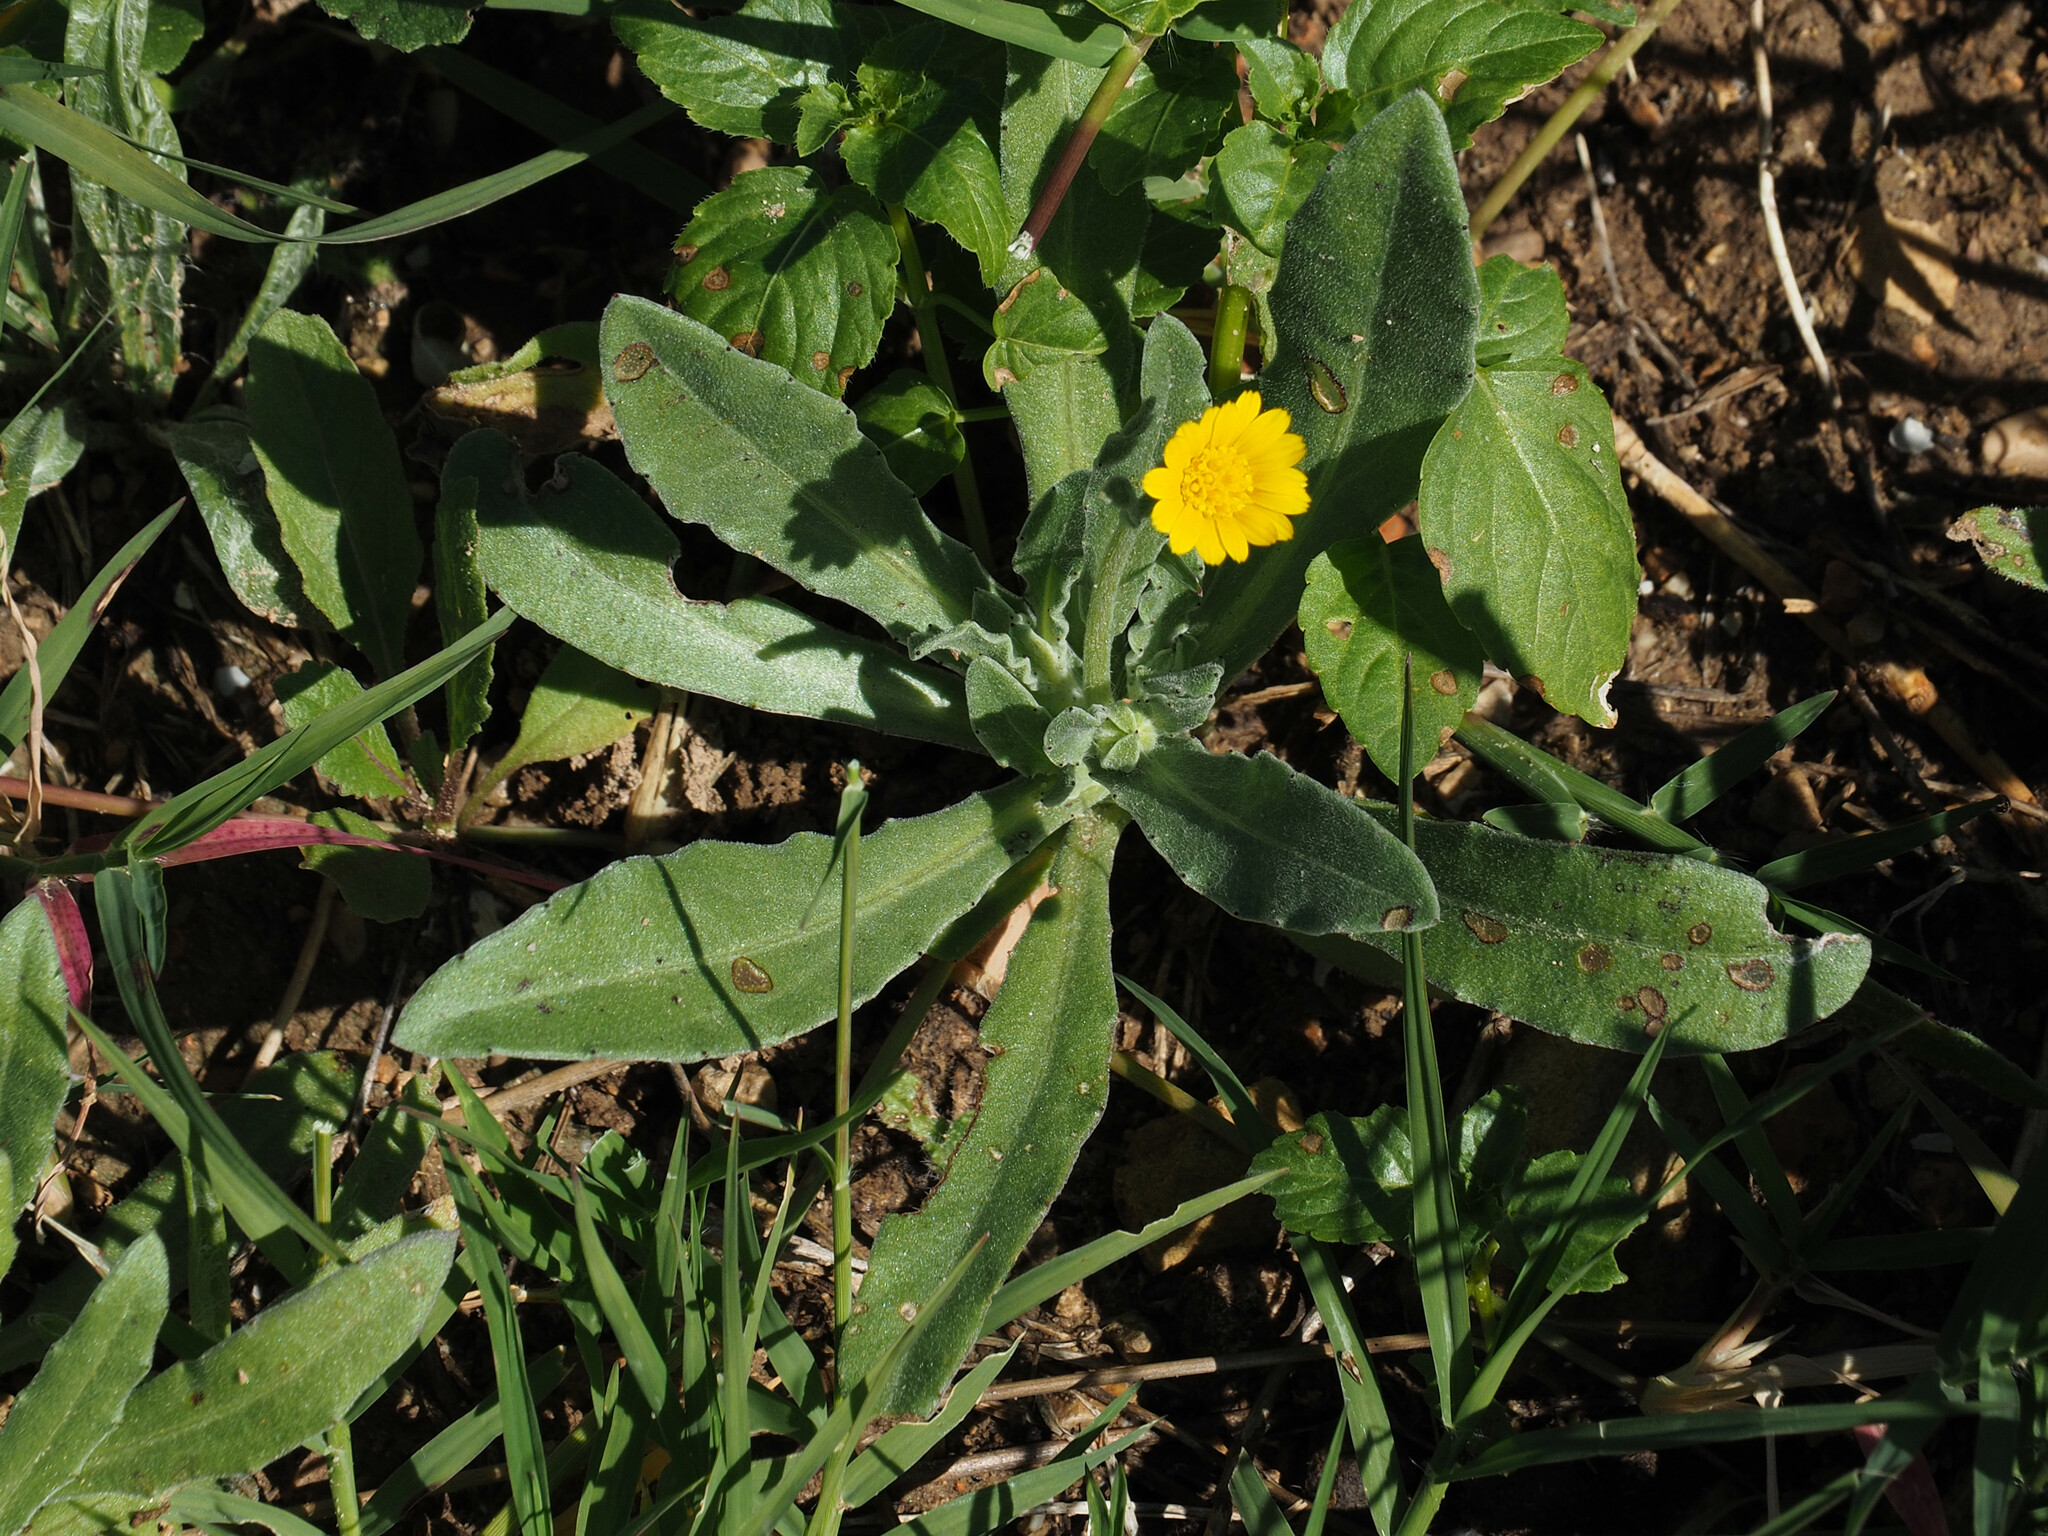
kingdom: Plantae
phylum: Tracheophyta
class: Magnoliopsida
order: Asterales
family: Asteraceae
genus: Calendula
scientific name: Calendula arvensis
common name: Field marigold
